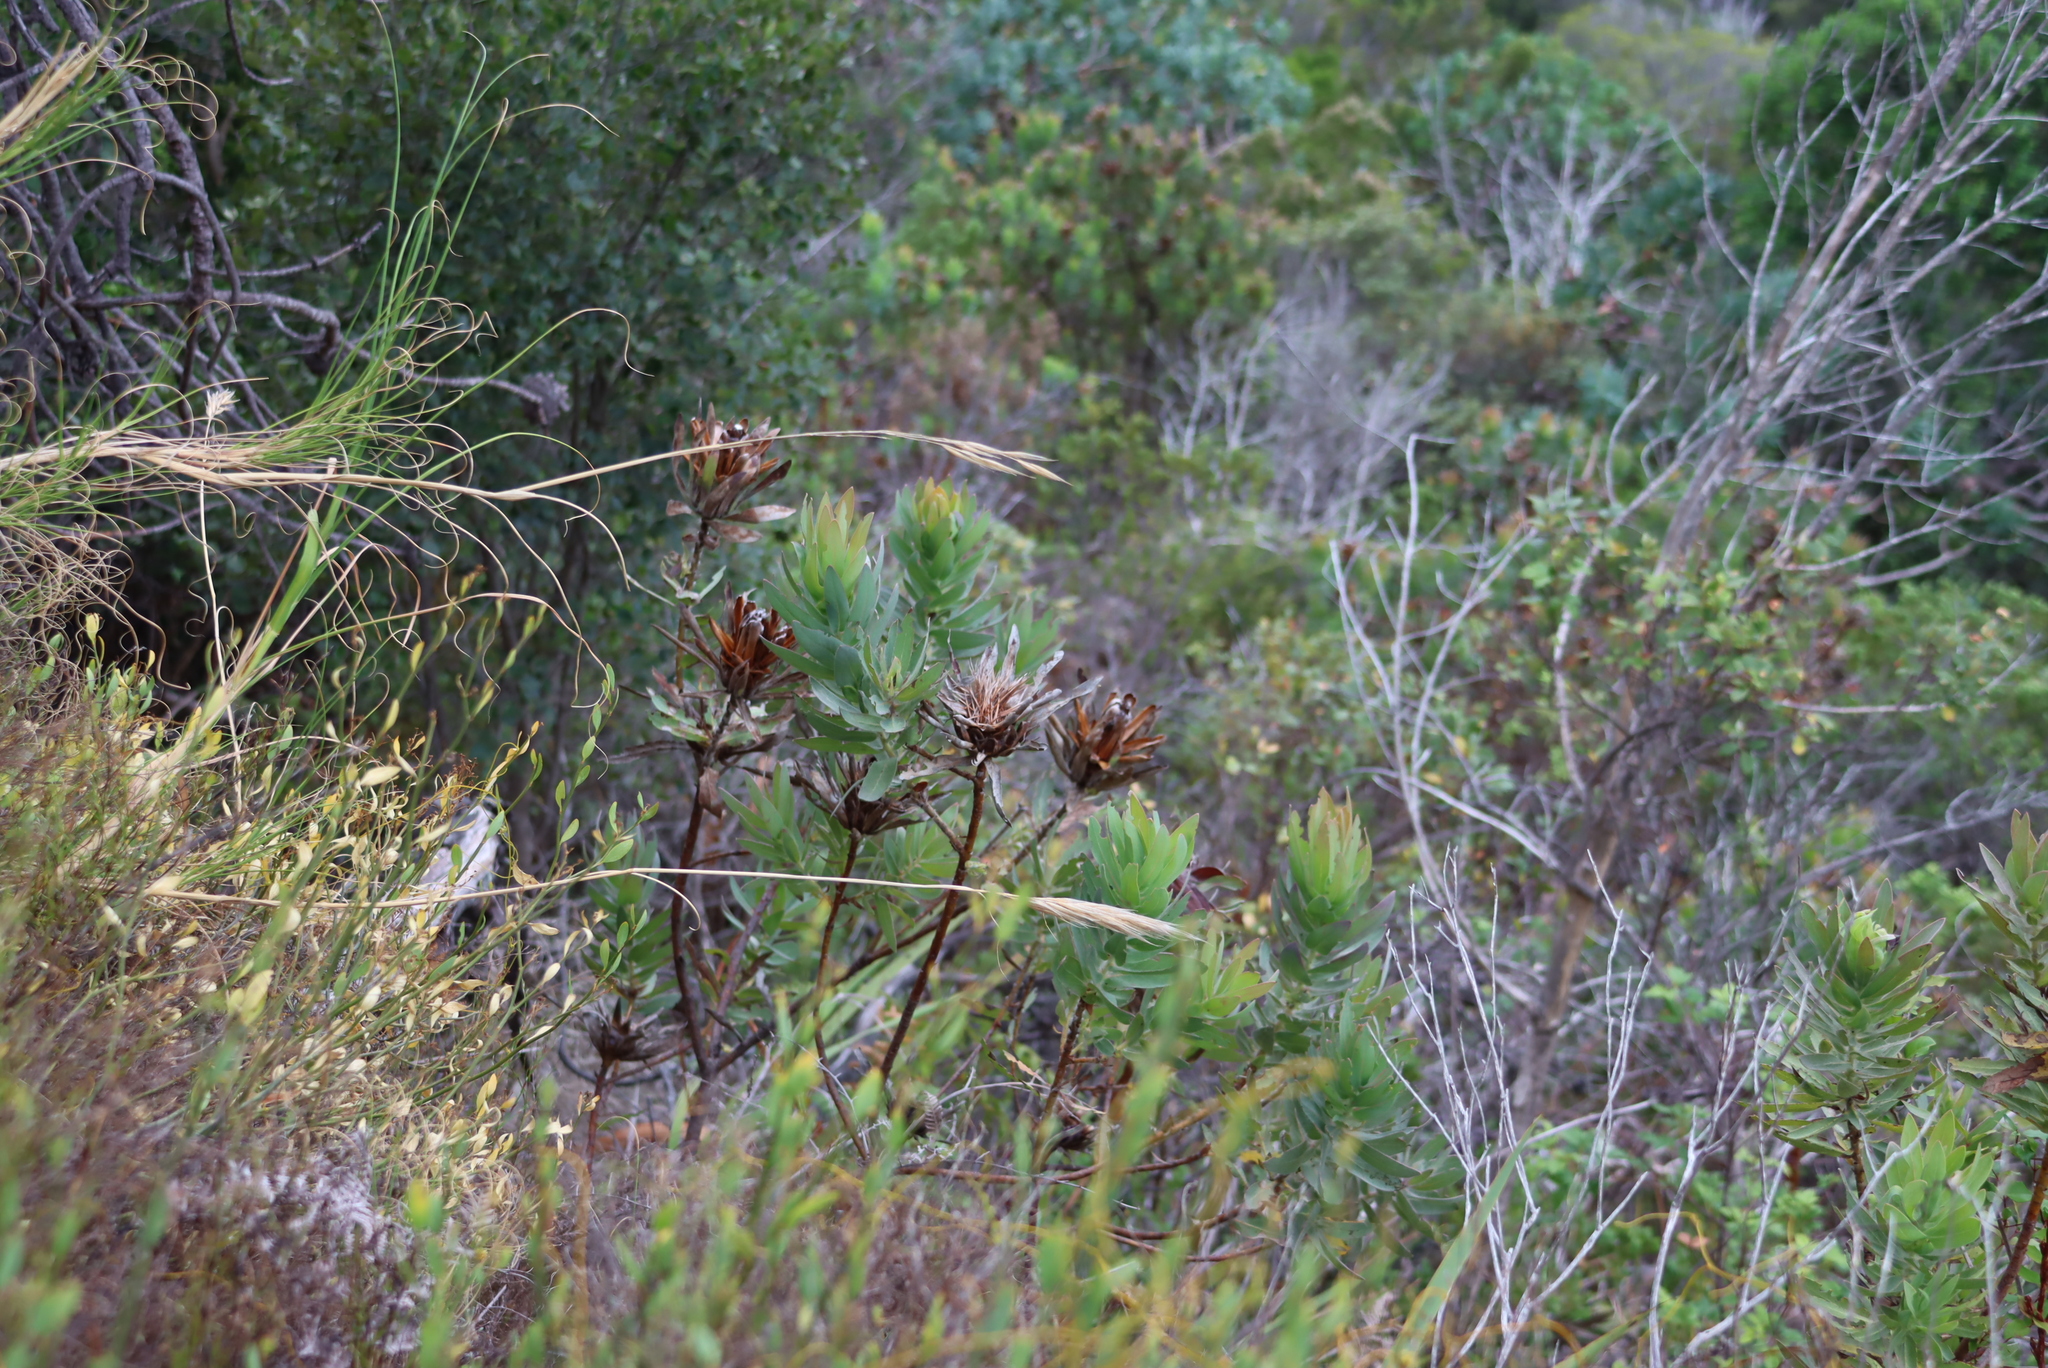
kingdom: Plantae
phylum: Tracheophyta
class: Magnoliopsida
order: Proteales
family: Proteaceae
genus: Protea
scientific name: Protea coronata
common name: Green sugarbush
